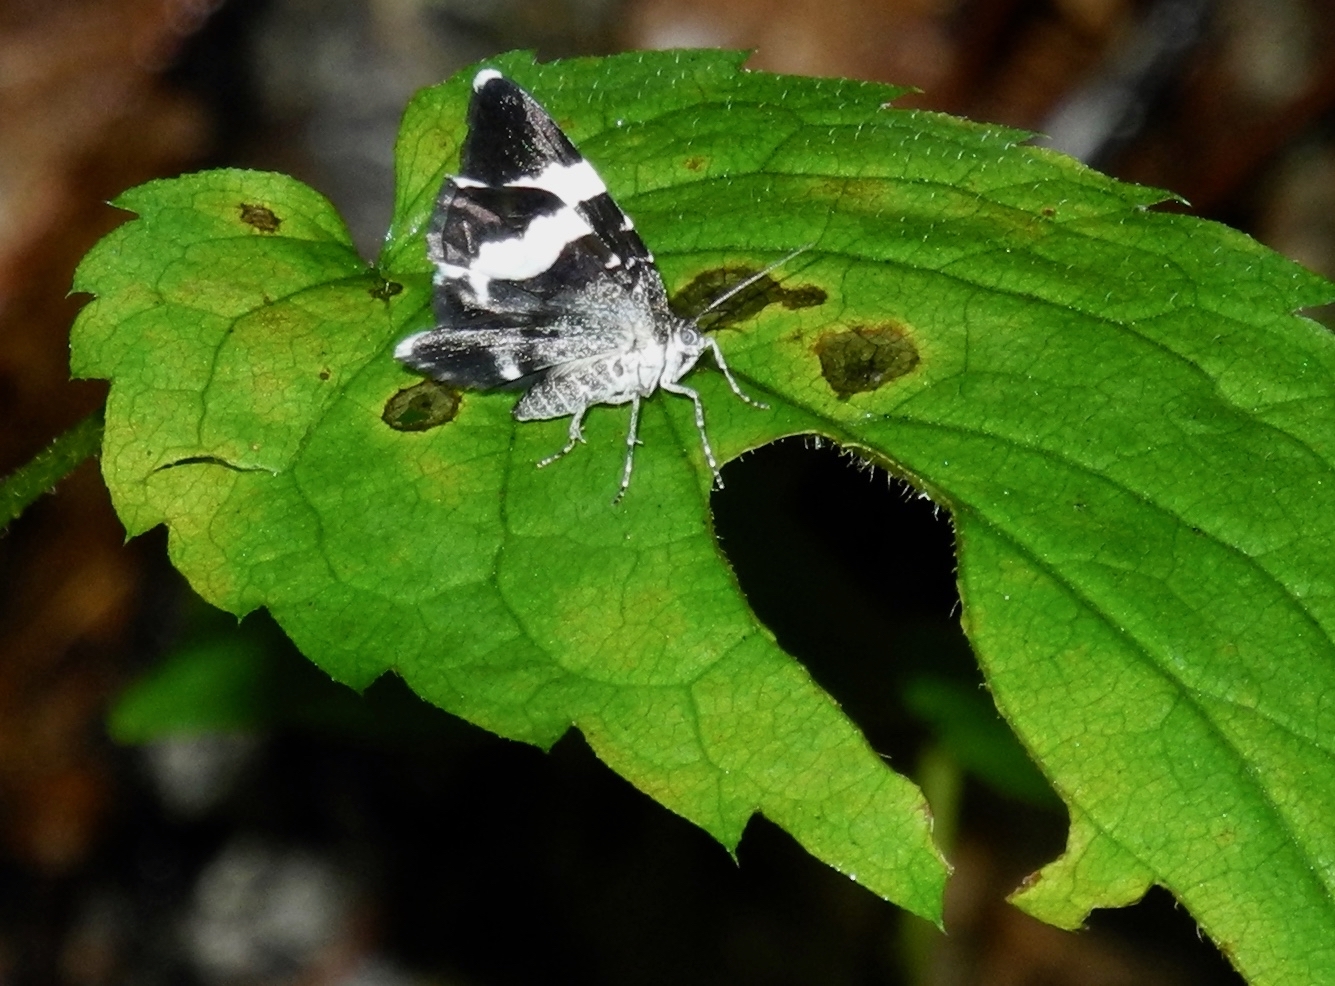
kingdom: Animalia
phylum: Arthropoda
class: Insecta
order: Lepidoptera
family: Geometridae
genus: Trichodezia
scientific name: Trichodezia albovittata
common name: White striped black
